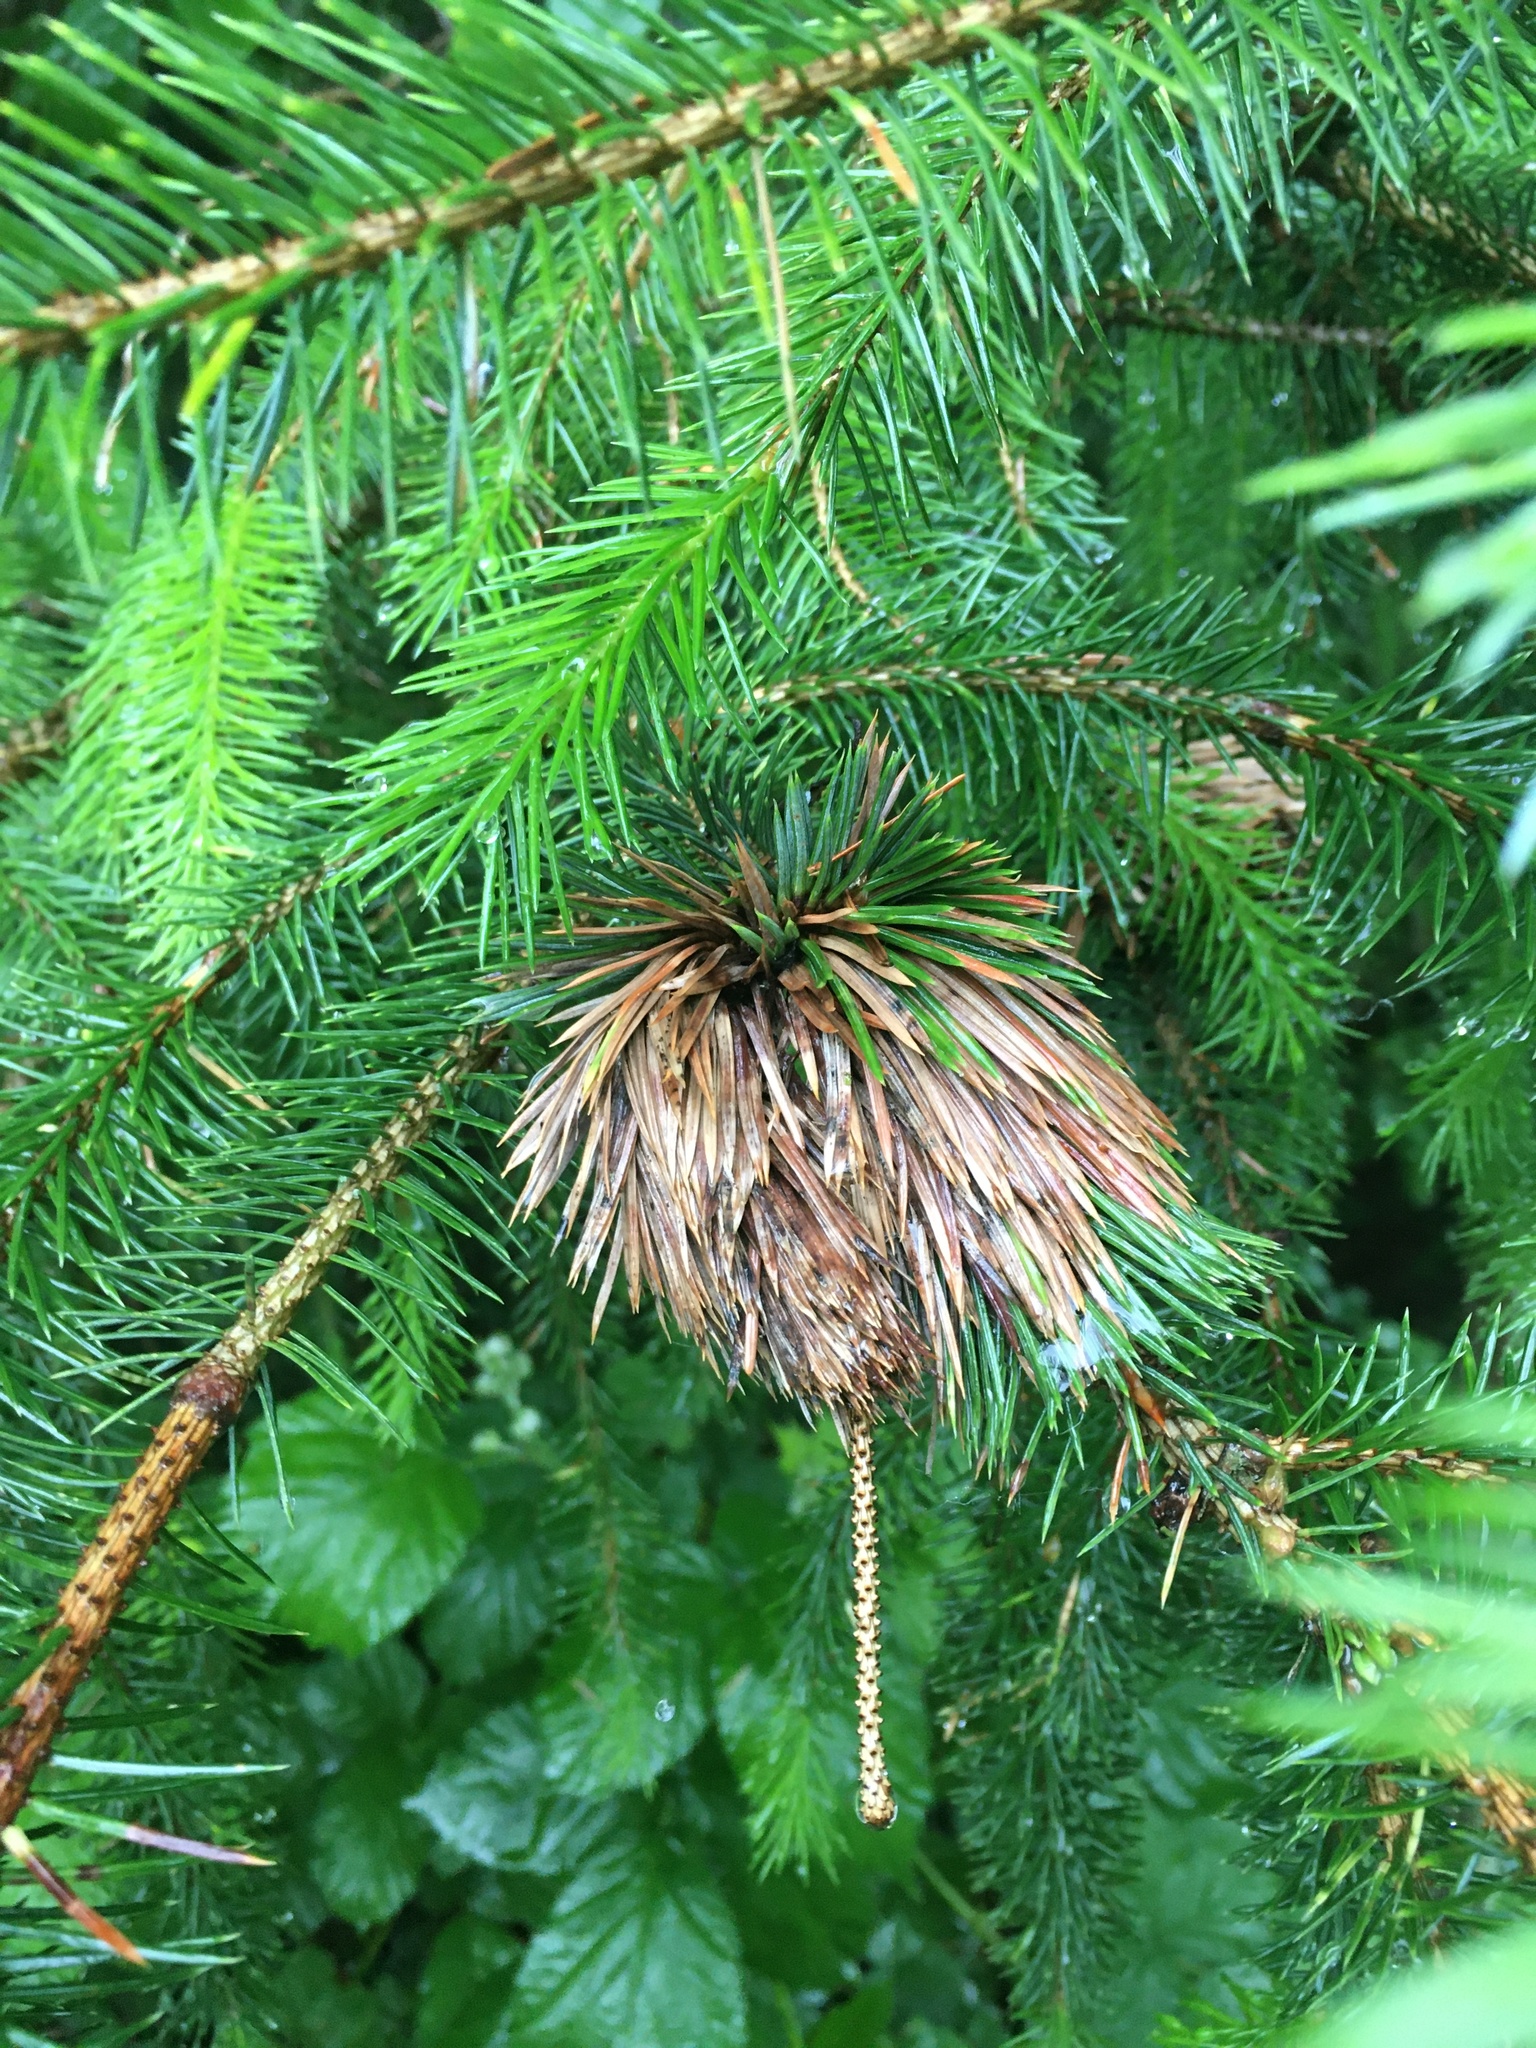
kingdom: Plantae
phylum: Tracheophyta
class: Pinopsida
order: Pinales
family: Pinaceae
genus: Picea
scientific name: Picea sitchensis
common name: Sitka spruce
